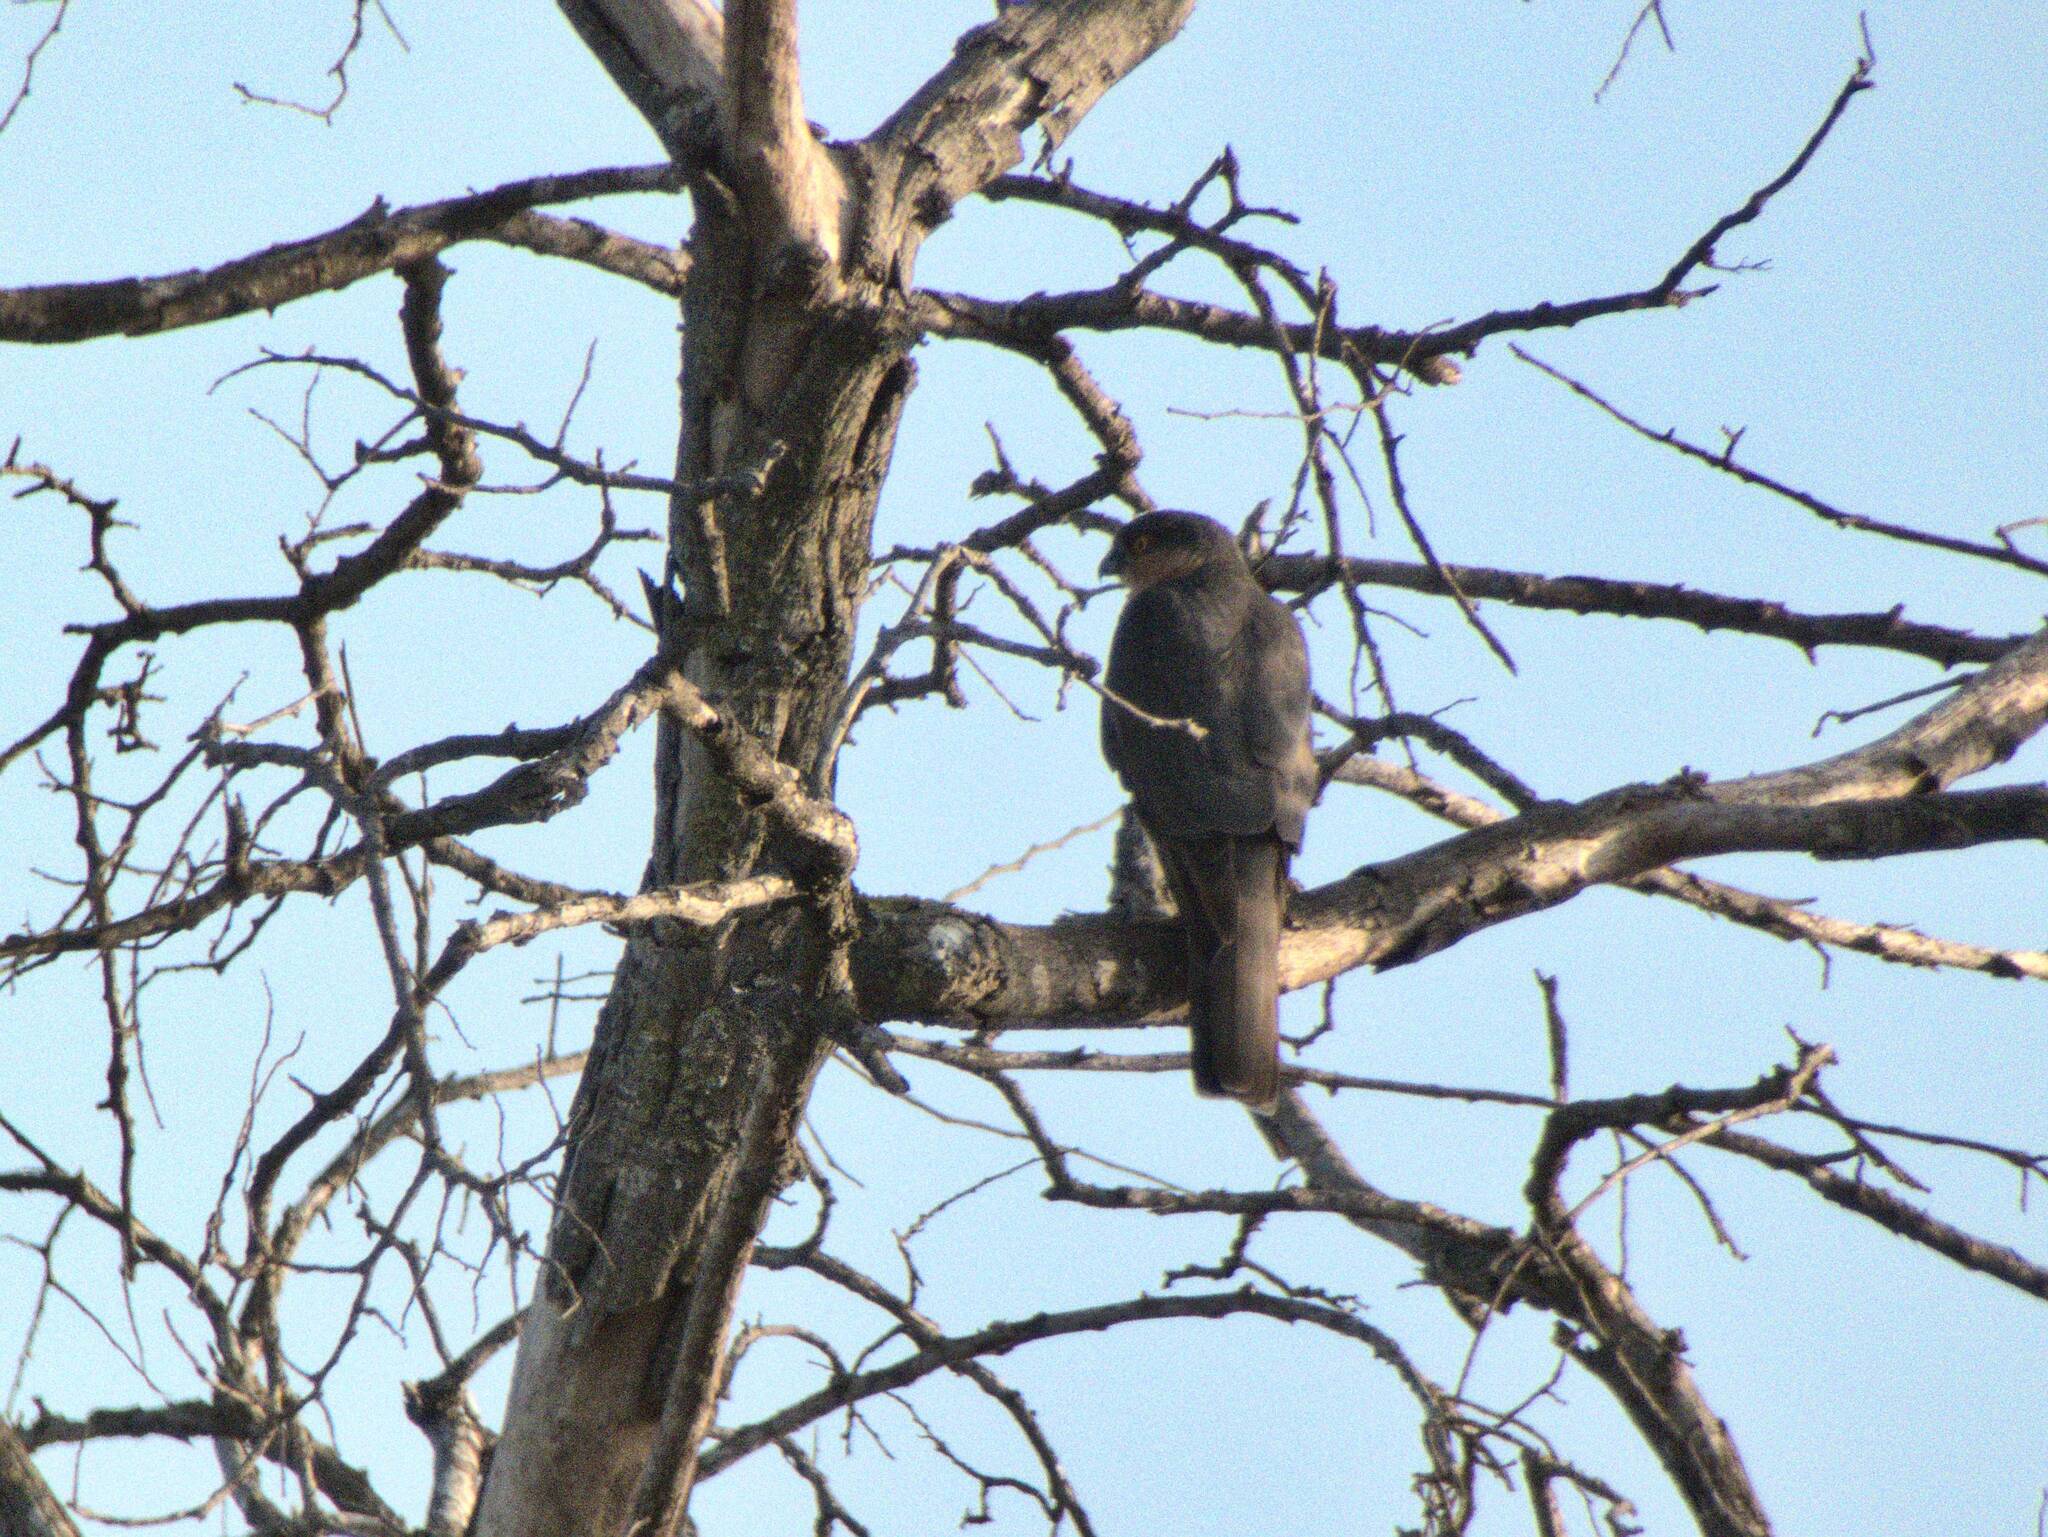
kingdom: Animalia
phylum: Chordata
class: Aves
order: Accipitriformes
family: Accipitridae
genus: Accipiter
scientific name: Accipiter nisus
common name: Eurasian sparrowhawk
